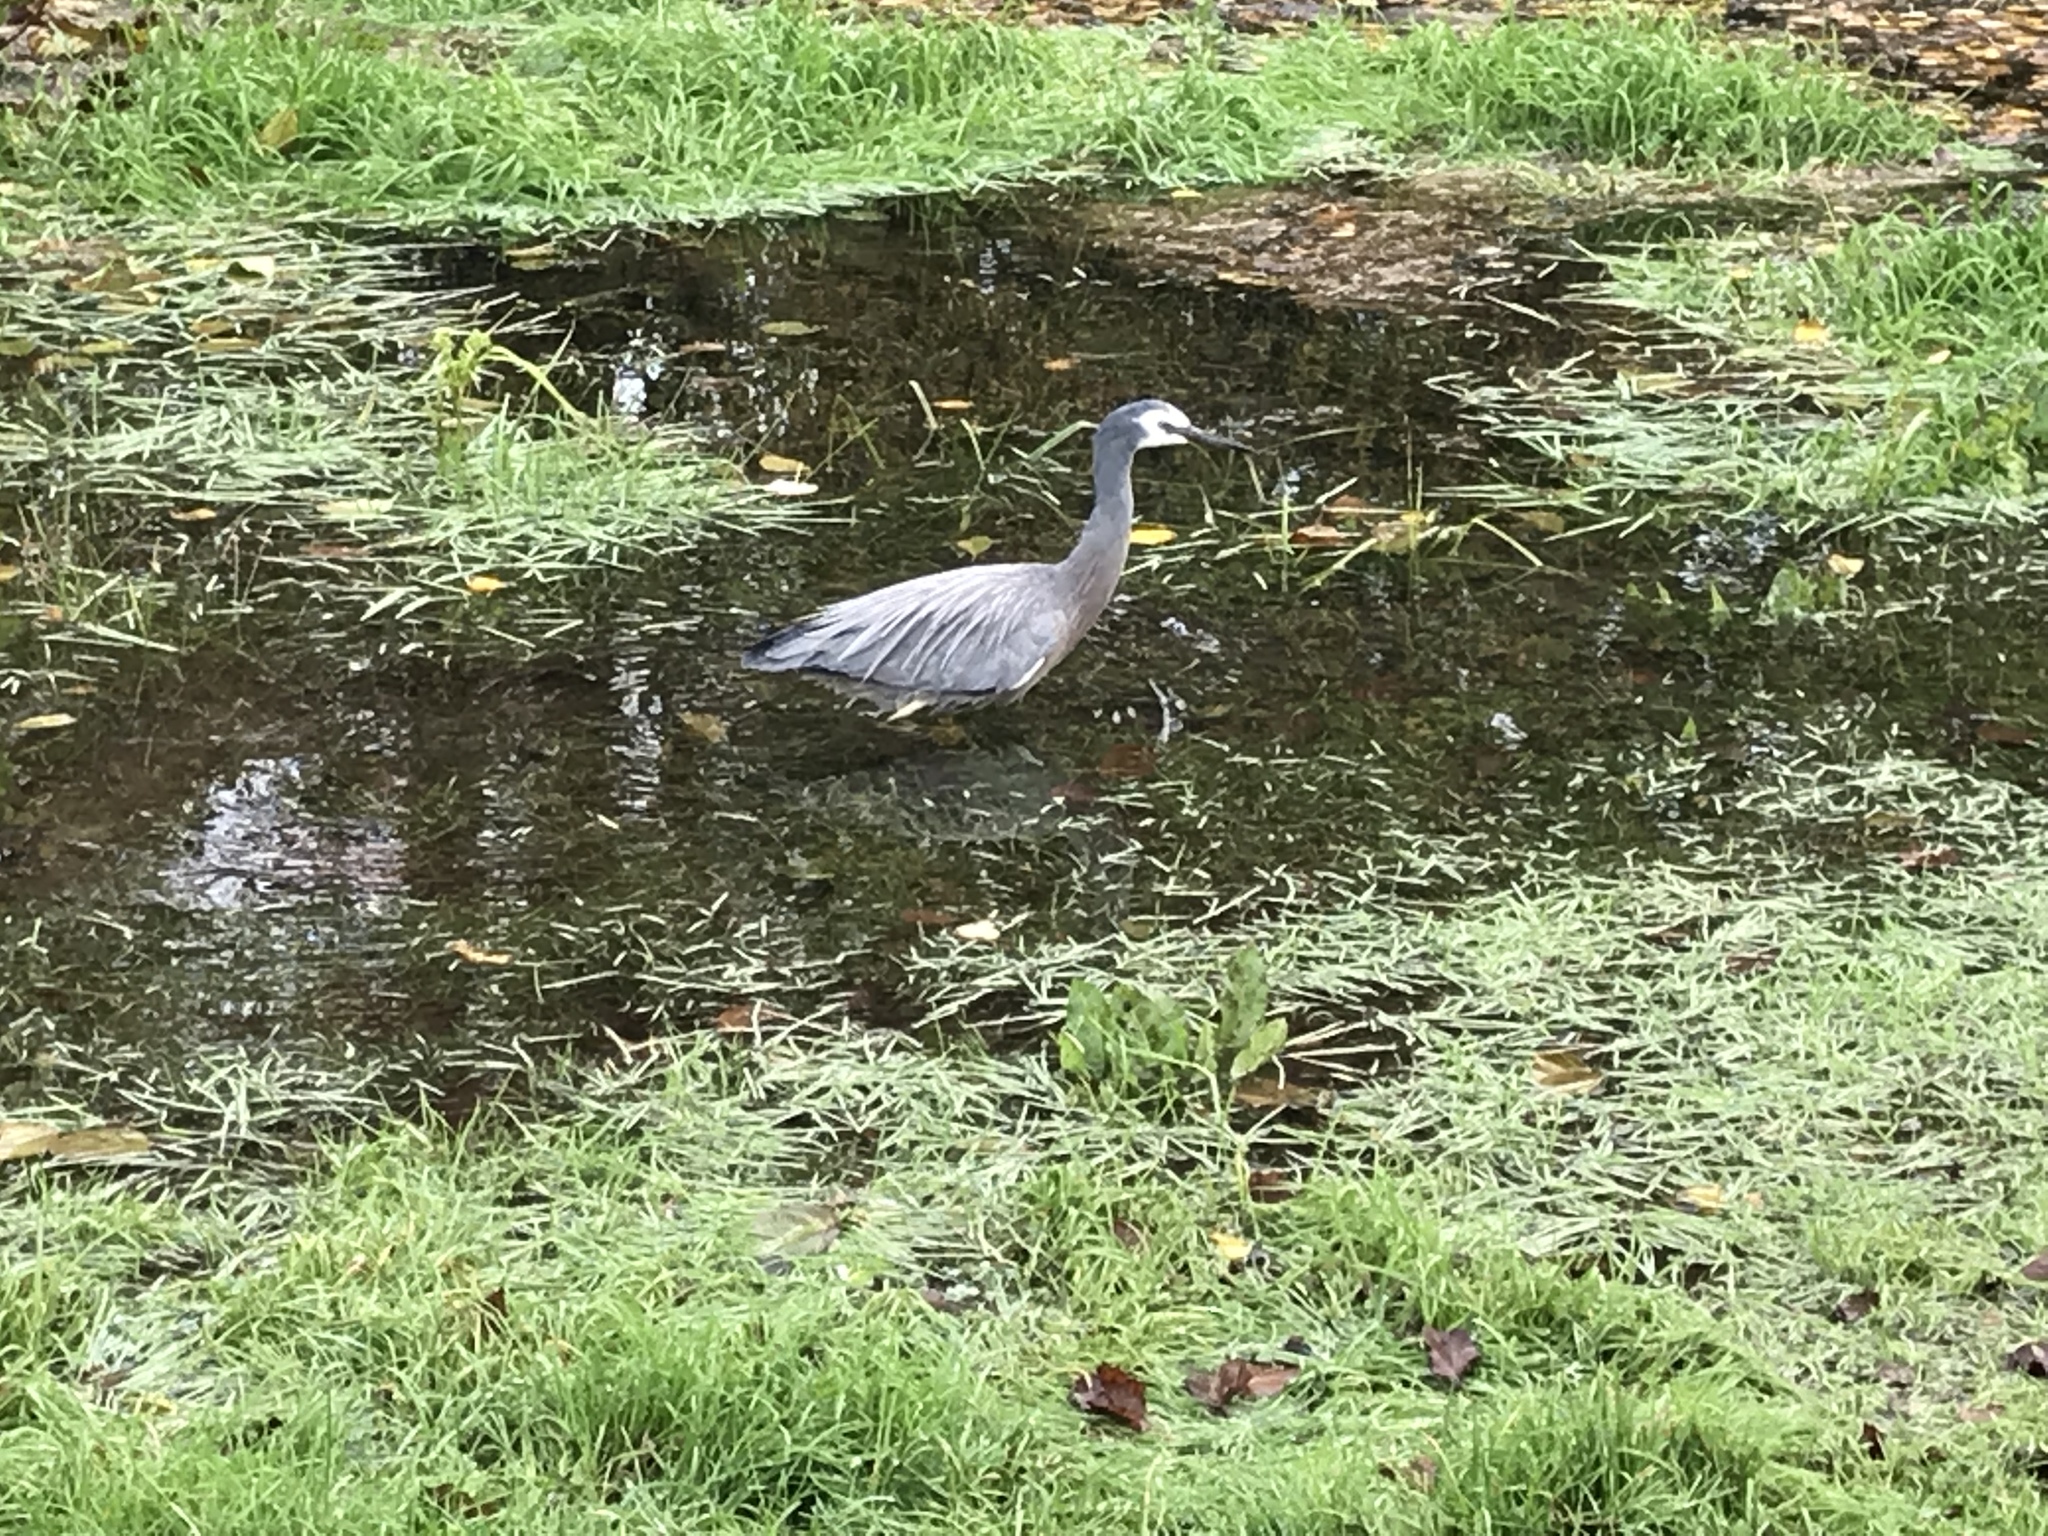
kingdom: Animalia
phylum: Chordata
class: Aves
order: Pelecaniformes
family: Ardeidae
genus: Egretta
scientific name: Egretta novaehollandiae
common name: White-faced heron
